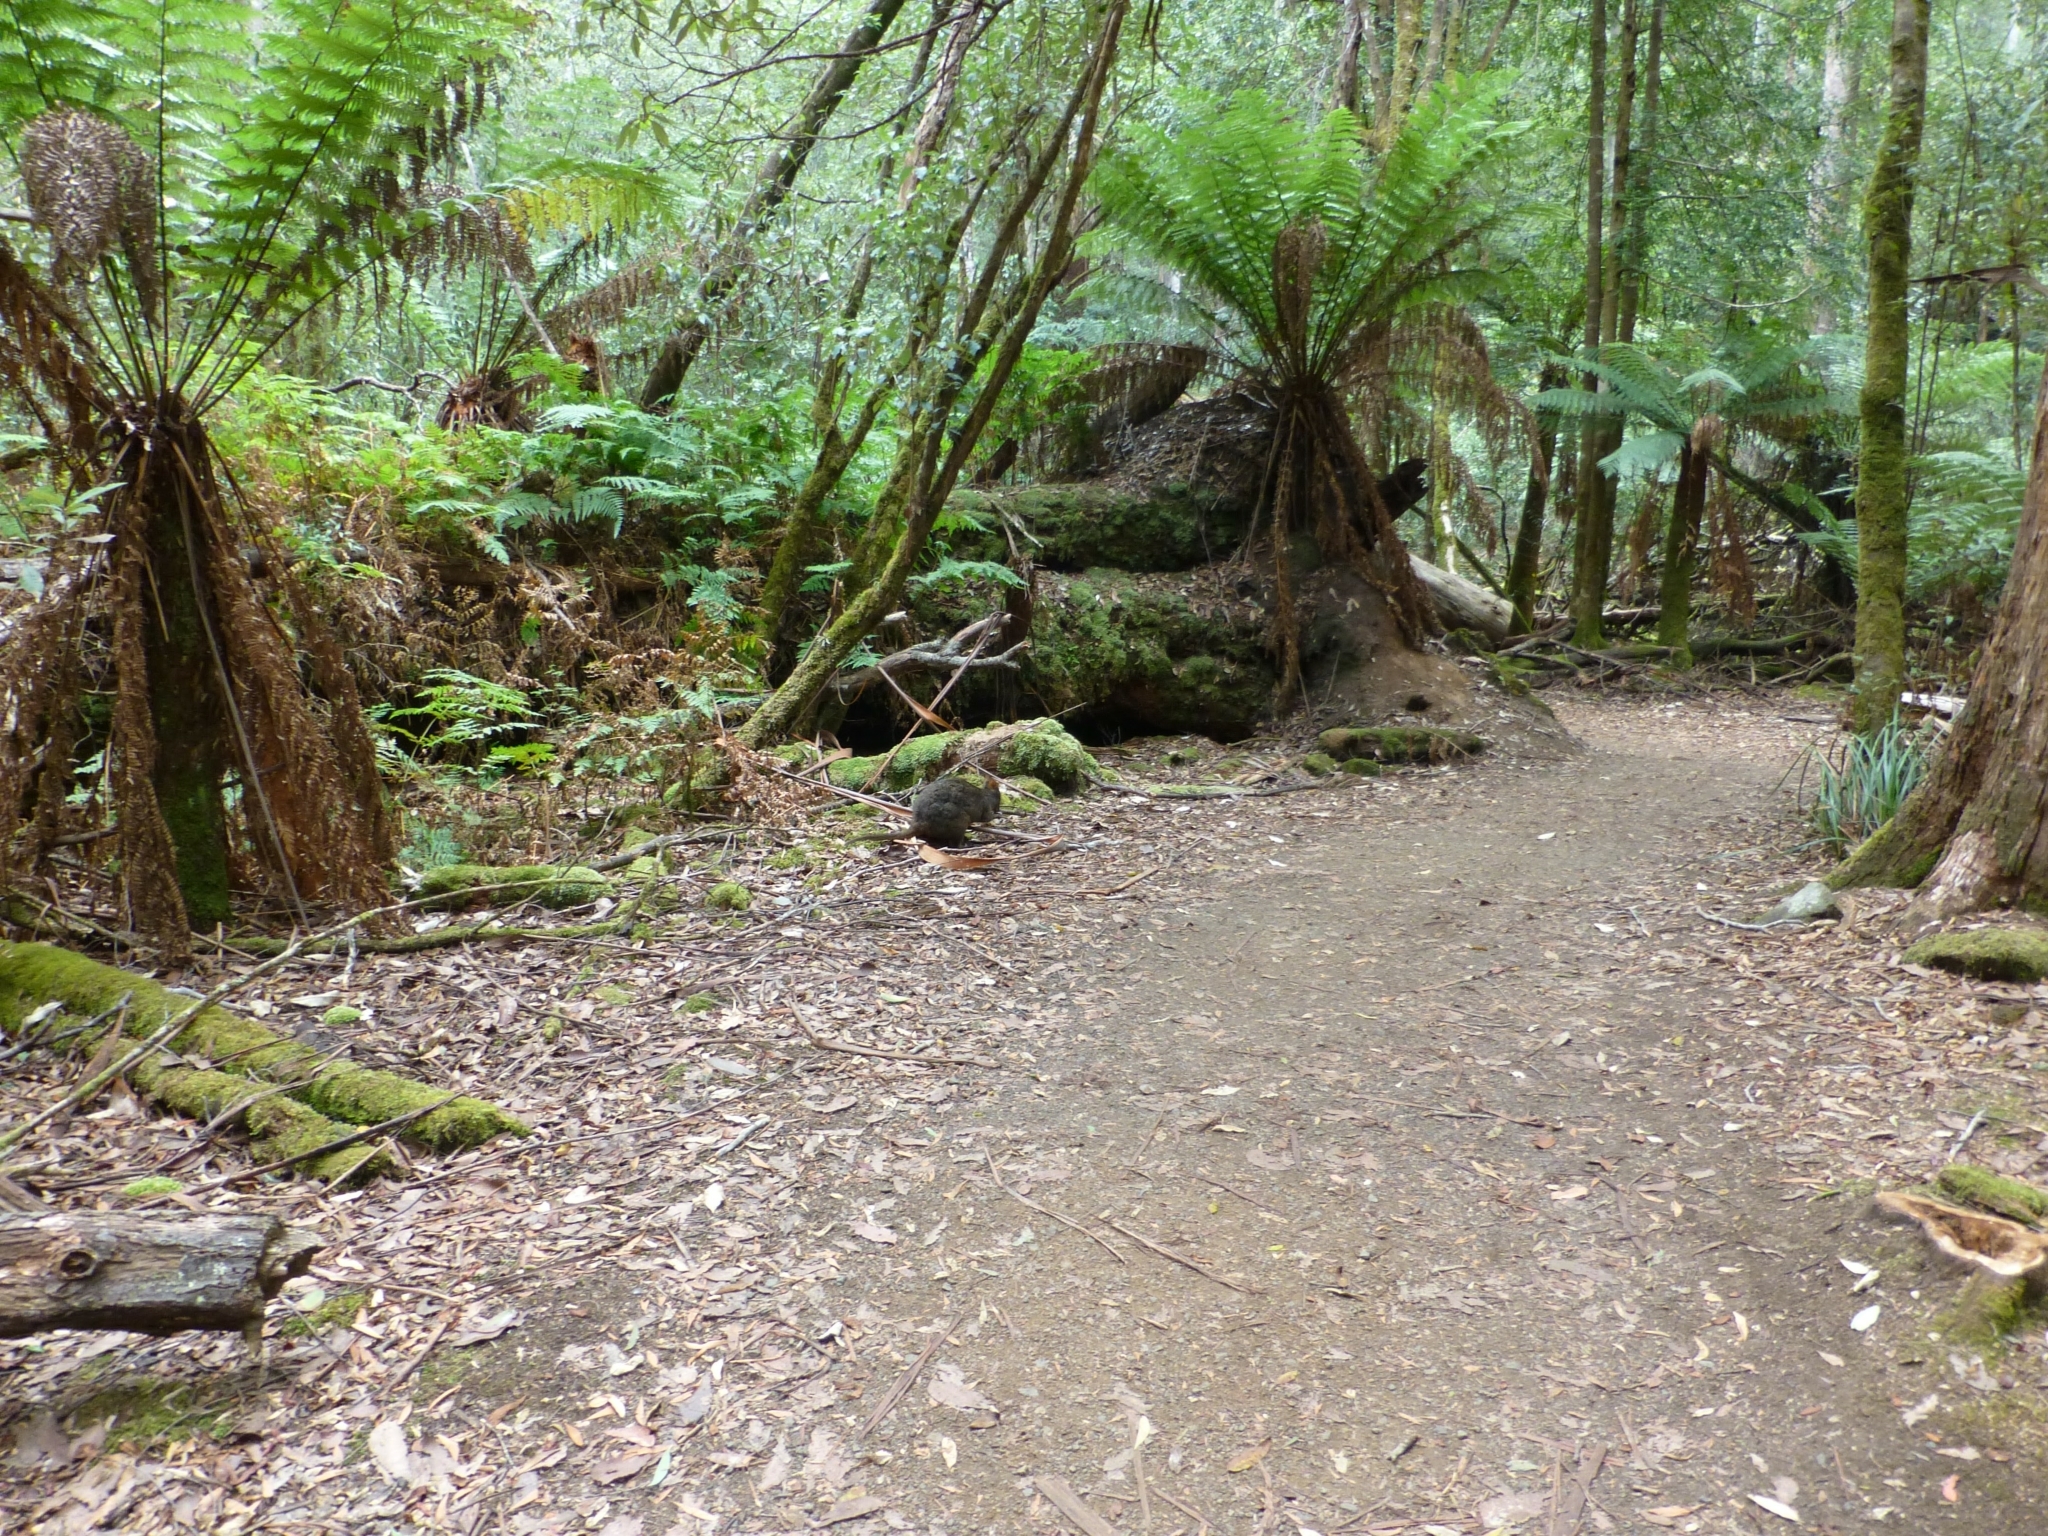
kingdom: Animalia
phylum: Chordata
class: Mammalia
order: Diprotodontia
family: Macropodidae
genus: Thylogale
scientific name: Thylogale billardierii
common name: Tasmanian pademelon
